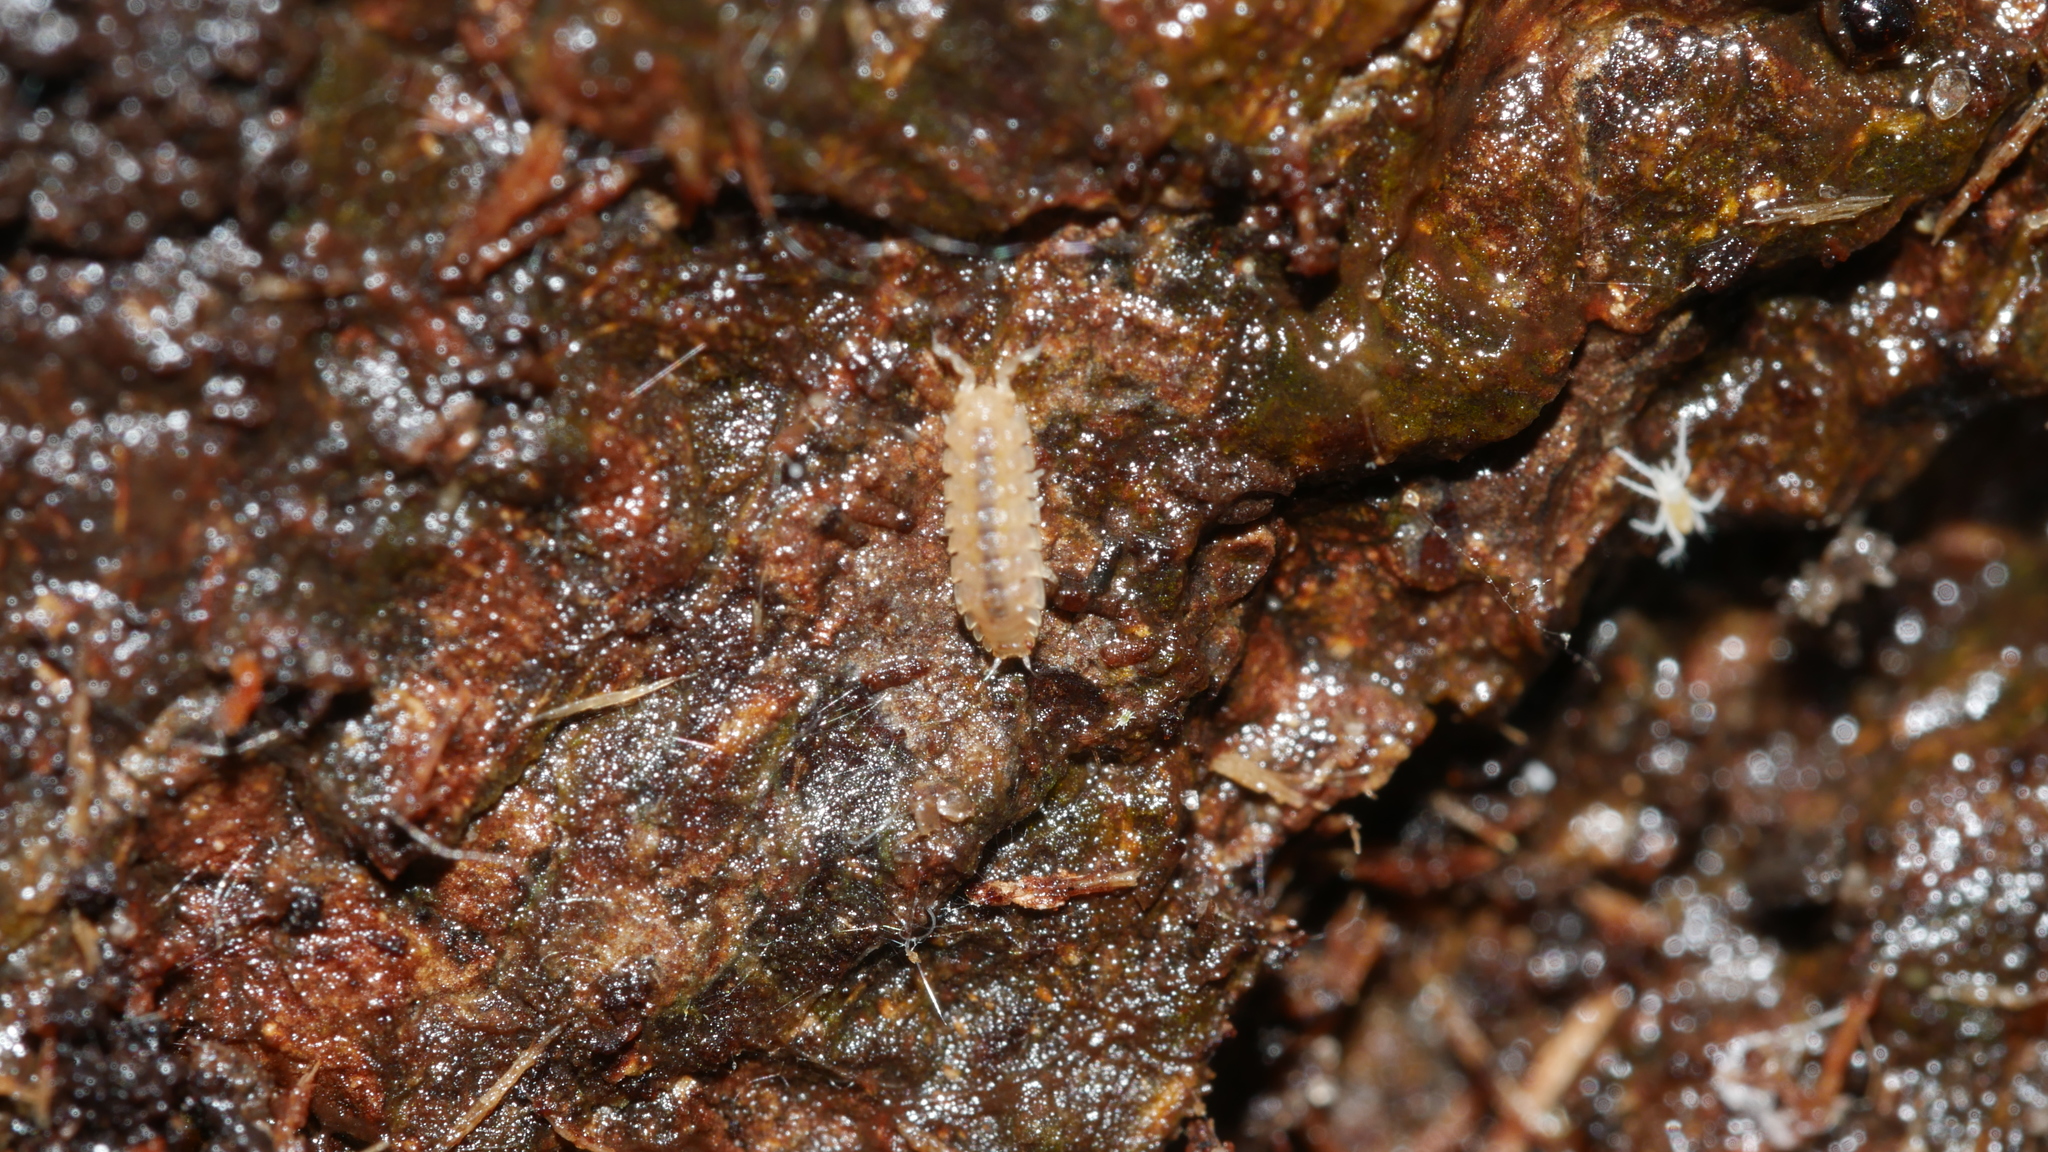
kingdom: Animalia
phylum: Arthropoda
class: Malacostraca
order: Isopoda
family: Trichoniscidae
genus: Haplophthalmus
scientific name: Haplophthalmus danicus
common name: Pillbug
